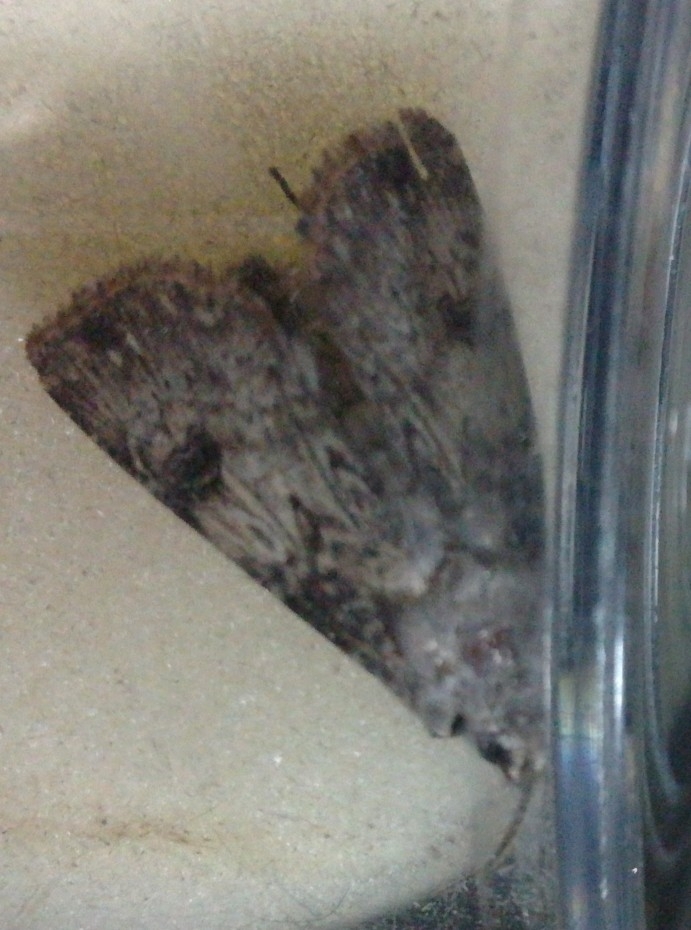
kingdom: Animalia
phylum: Arthropoda
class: Insecta
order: Lepidoptera
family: Noctuidae
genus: Agrotis
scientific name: Agrotis puta
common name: Shuttle-shaped dart
